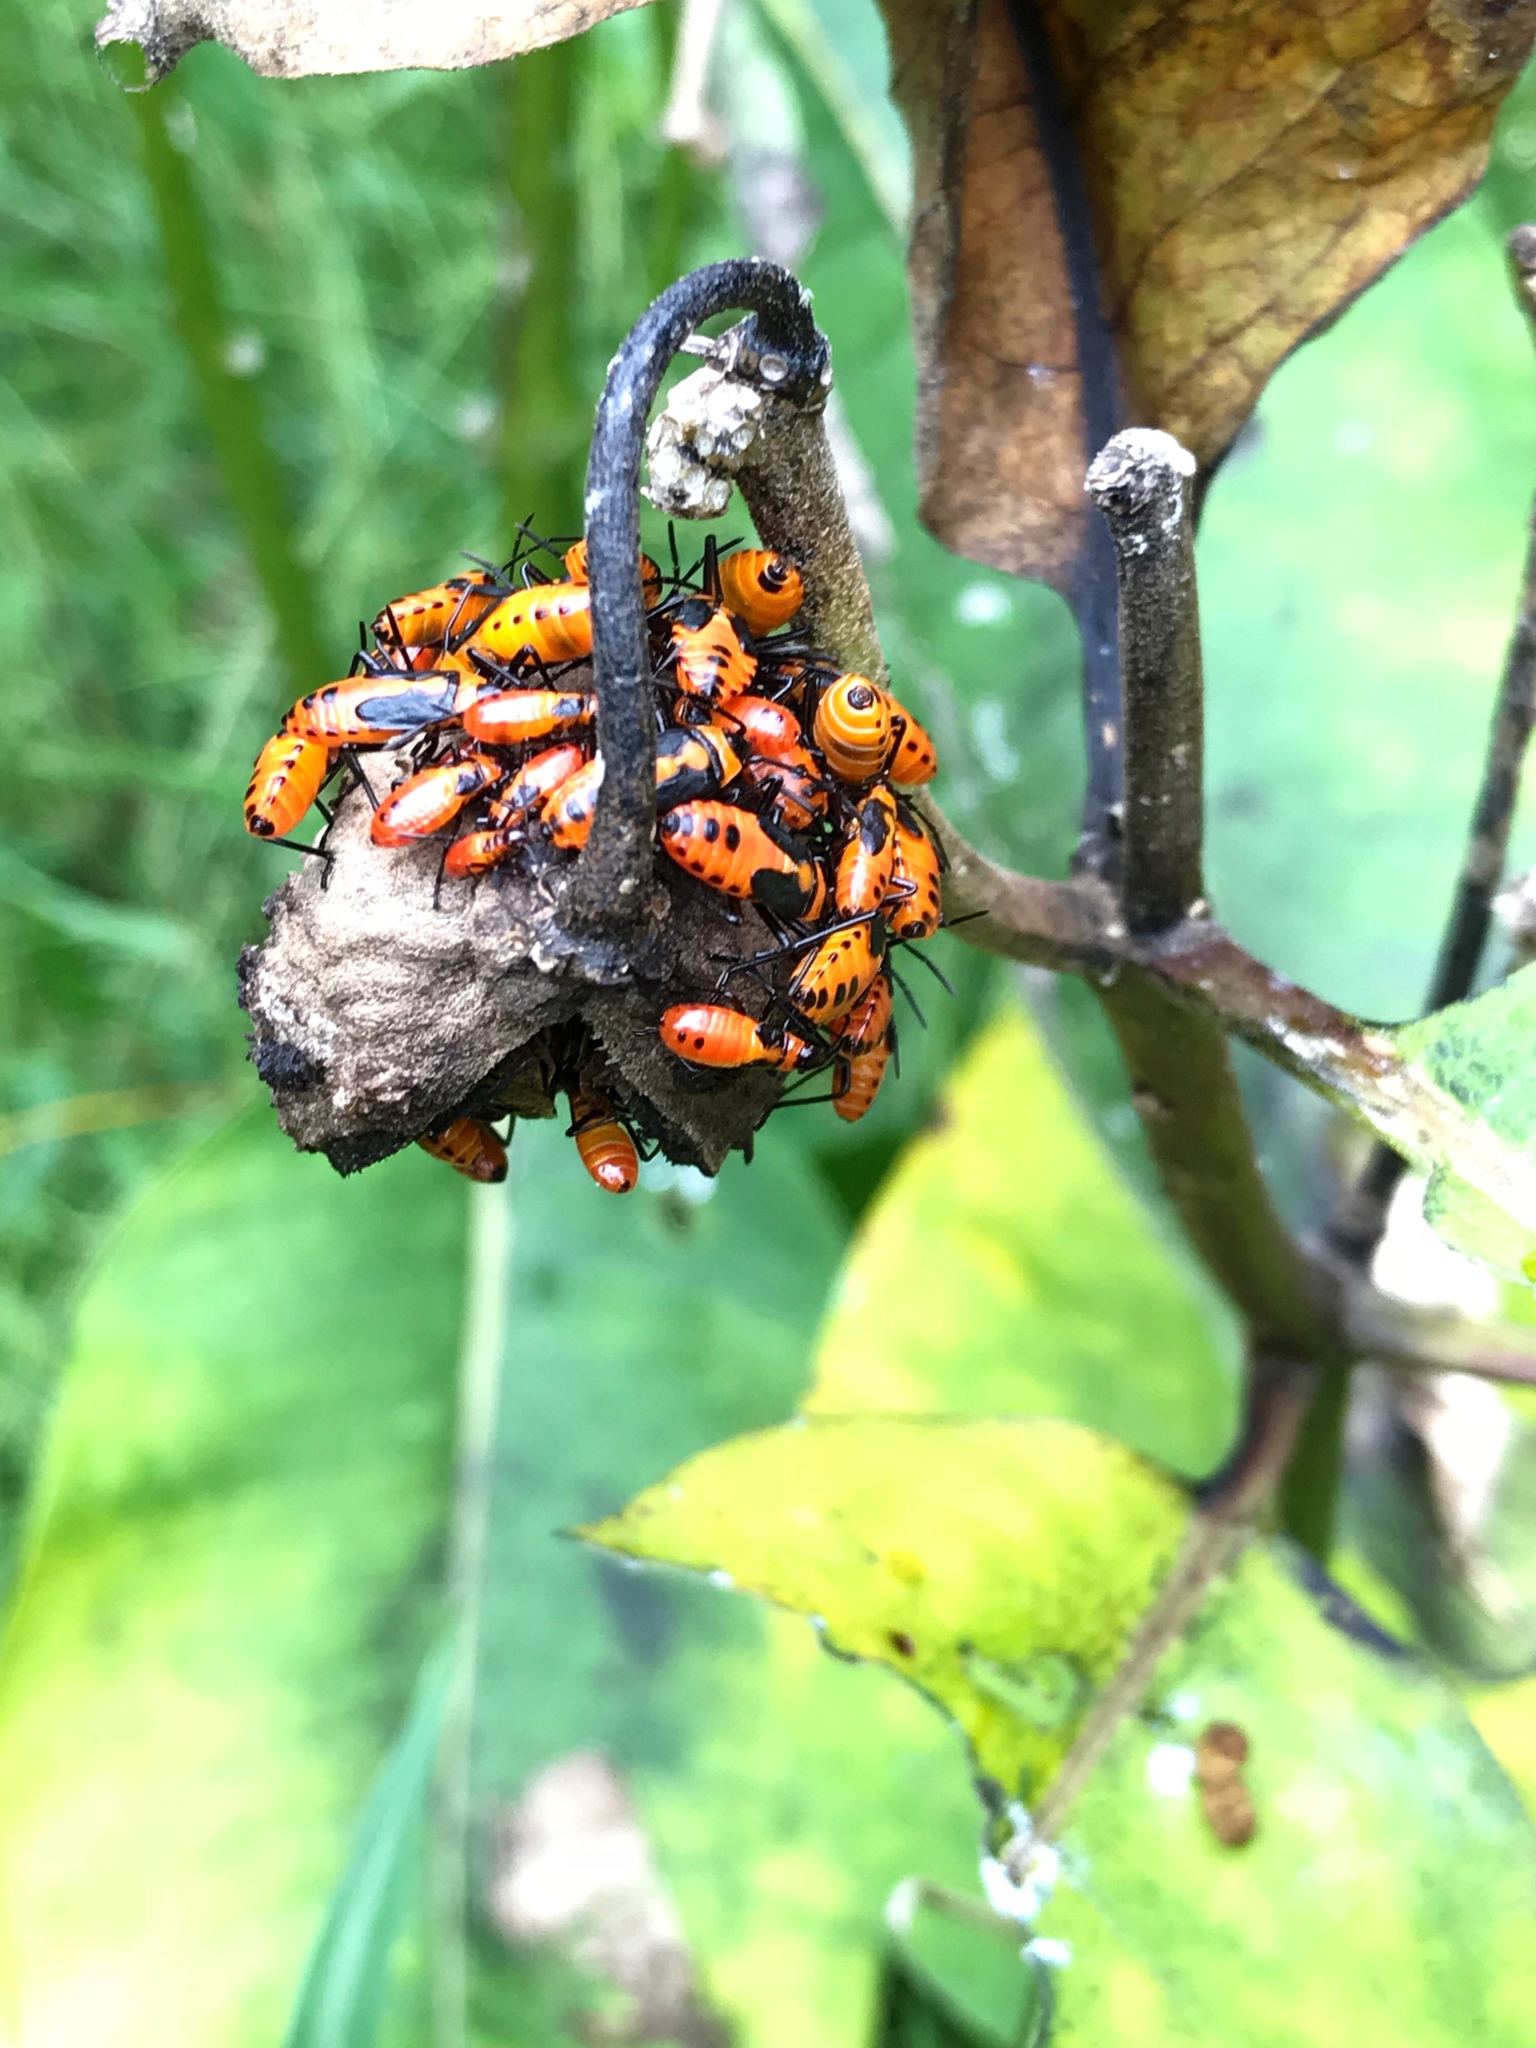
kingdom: Animalia
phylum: Arthropoda
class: Insecta
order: Hemiptera
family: Lygaeidae
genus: Oncopeltus
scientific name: Oncopeltus fasciatus
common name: Large milkweed bug
